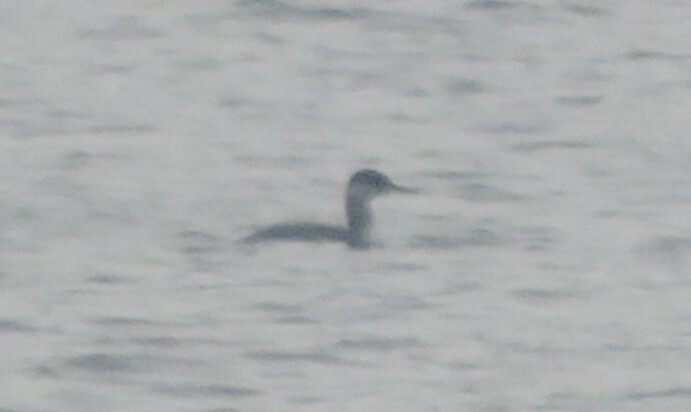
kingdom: Animalia
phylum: Chordata
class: Aves
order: Podicipediformes
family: Podicipedidae
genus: Podiceps
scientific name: Podiceps grisegena
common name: Red-necked grebe
